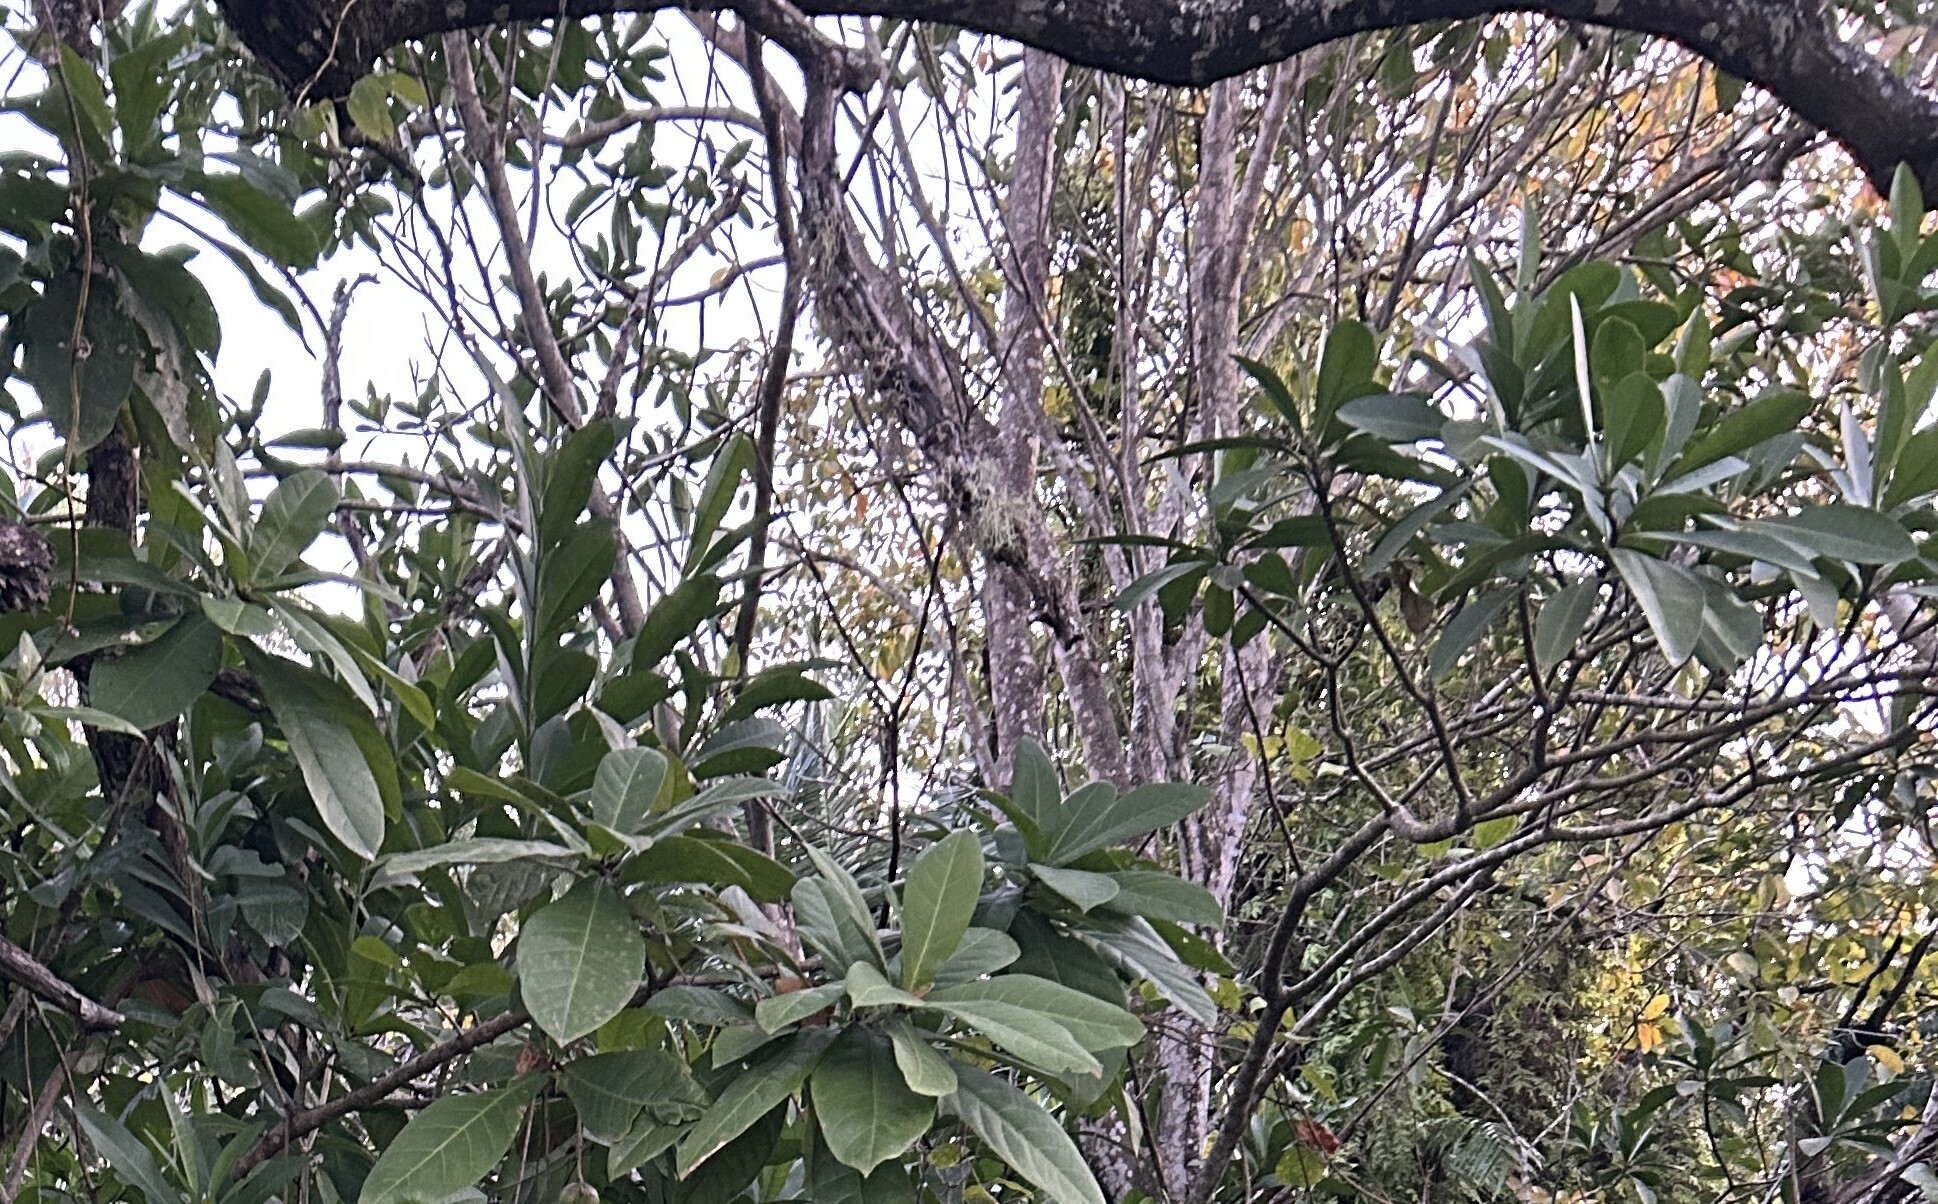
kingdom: Plantae
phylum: Tracheophyta
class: Magnoliopsida
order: Ericales
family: Lecythidaceae
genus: Barringtonia
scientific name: Barringtonia racemosa
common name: Brackwater mangrove
